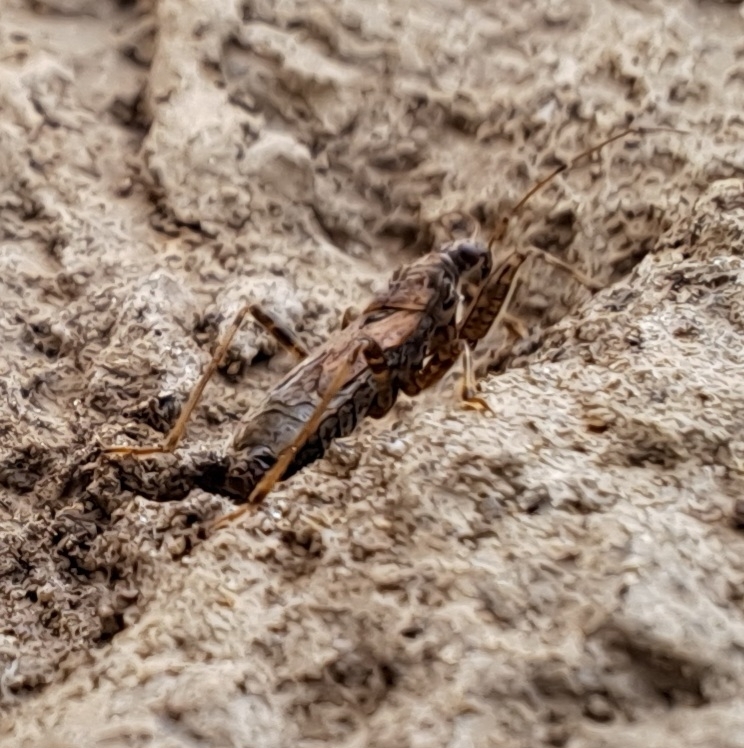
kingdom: Animalia
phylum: Arthropoda
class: Insecta
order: Hemiptera
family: Nabidae
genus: Himacerus
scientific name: Himacerus mirmicoides
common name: Ant damsel bug
